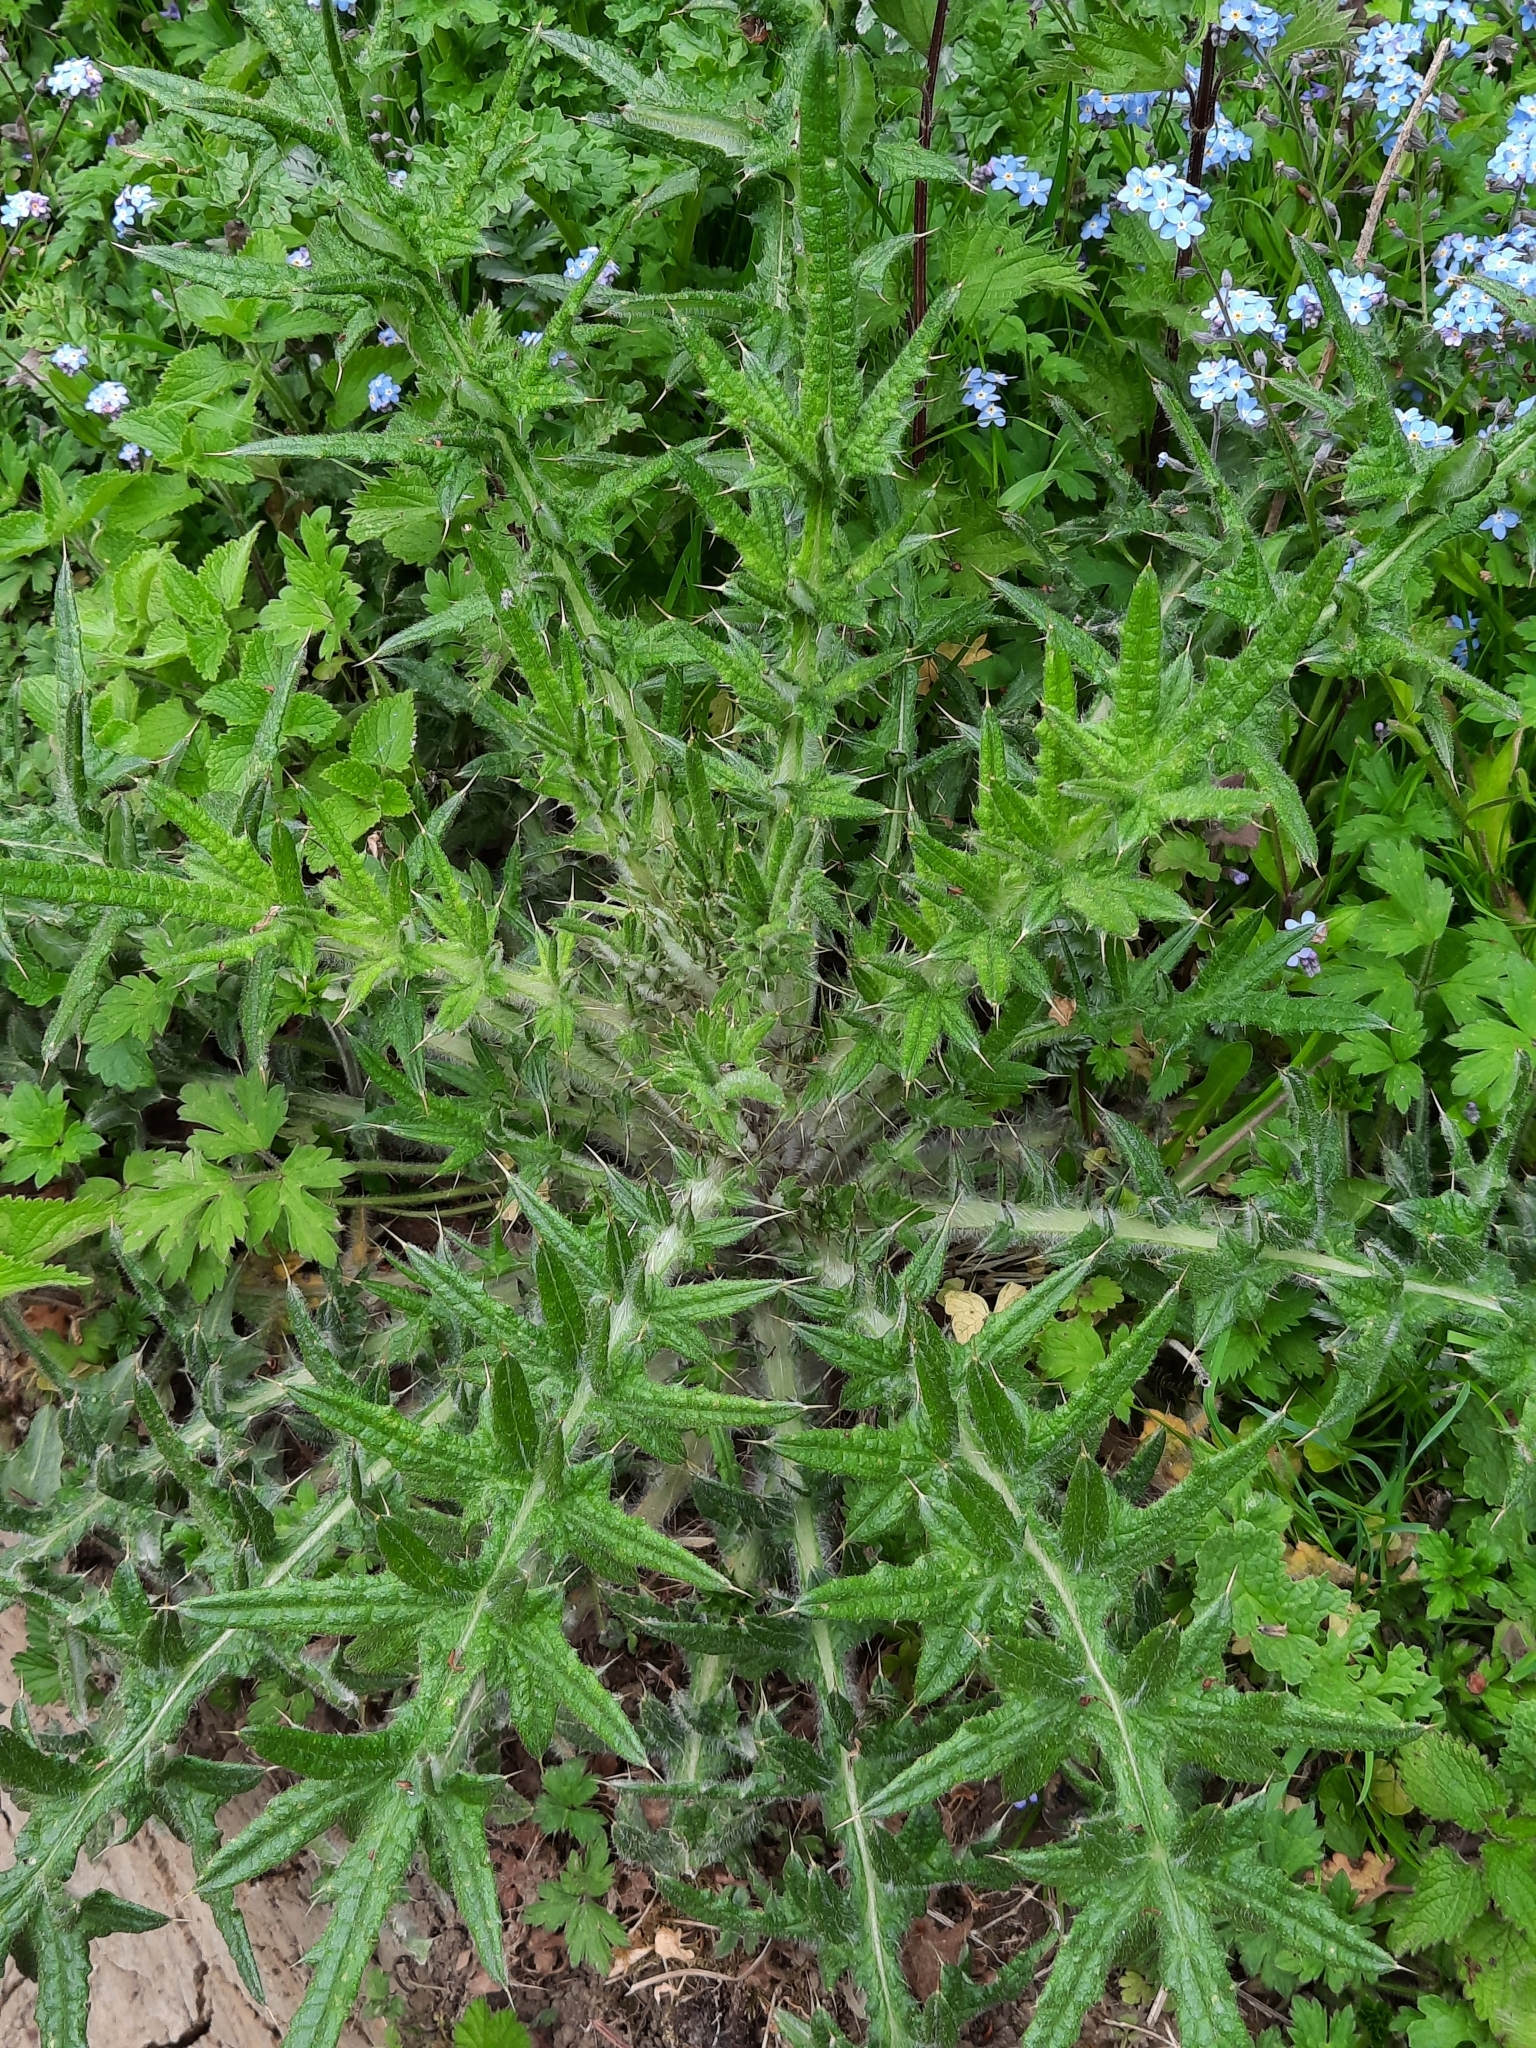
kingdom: Plantae
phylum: Tracheophyta
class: Magnoliopsida
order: Asterales
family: Asteraceae
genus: Cirsium
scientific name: Cirsium vulgare
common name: Bull thistle
